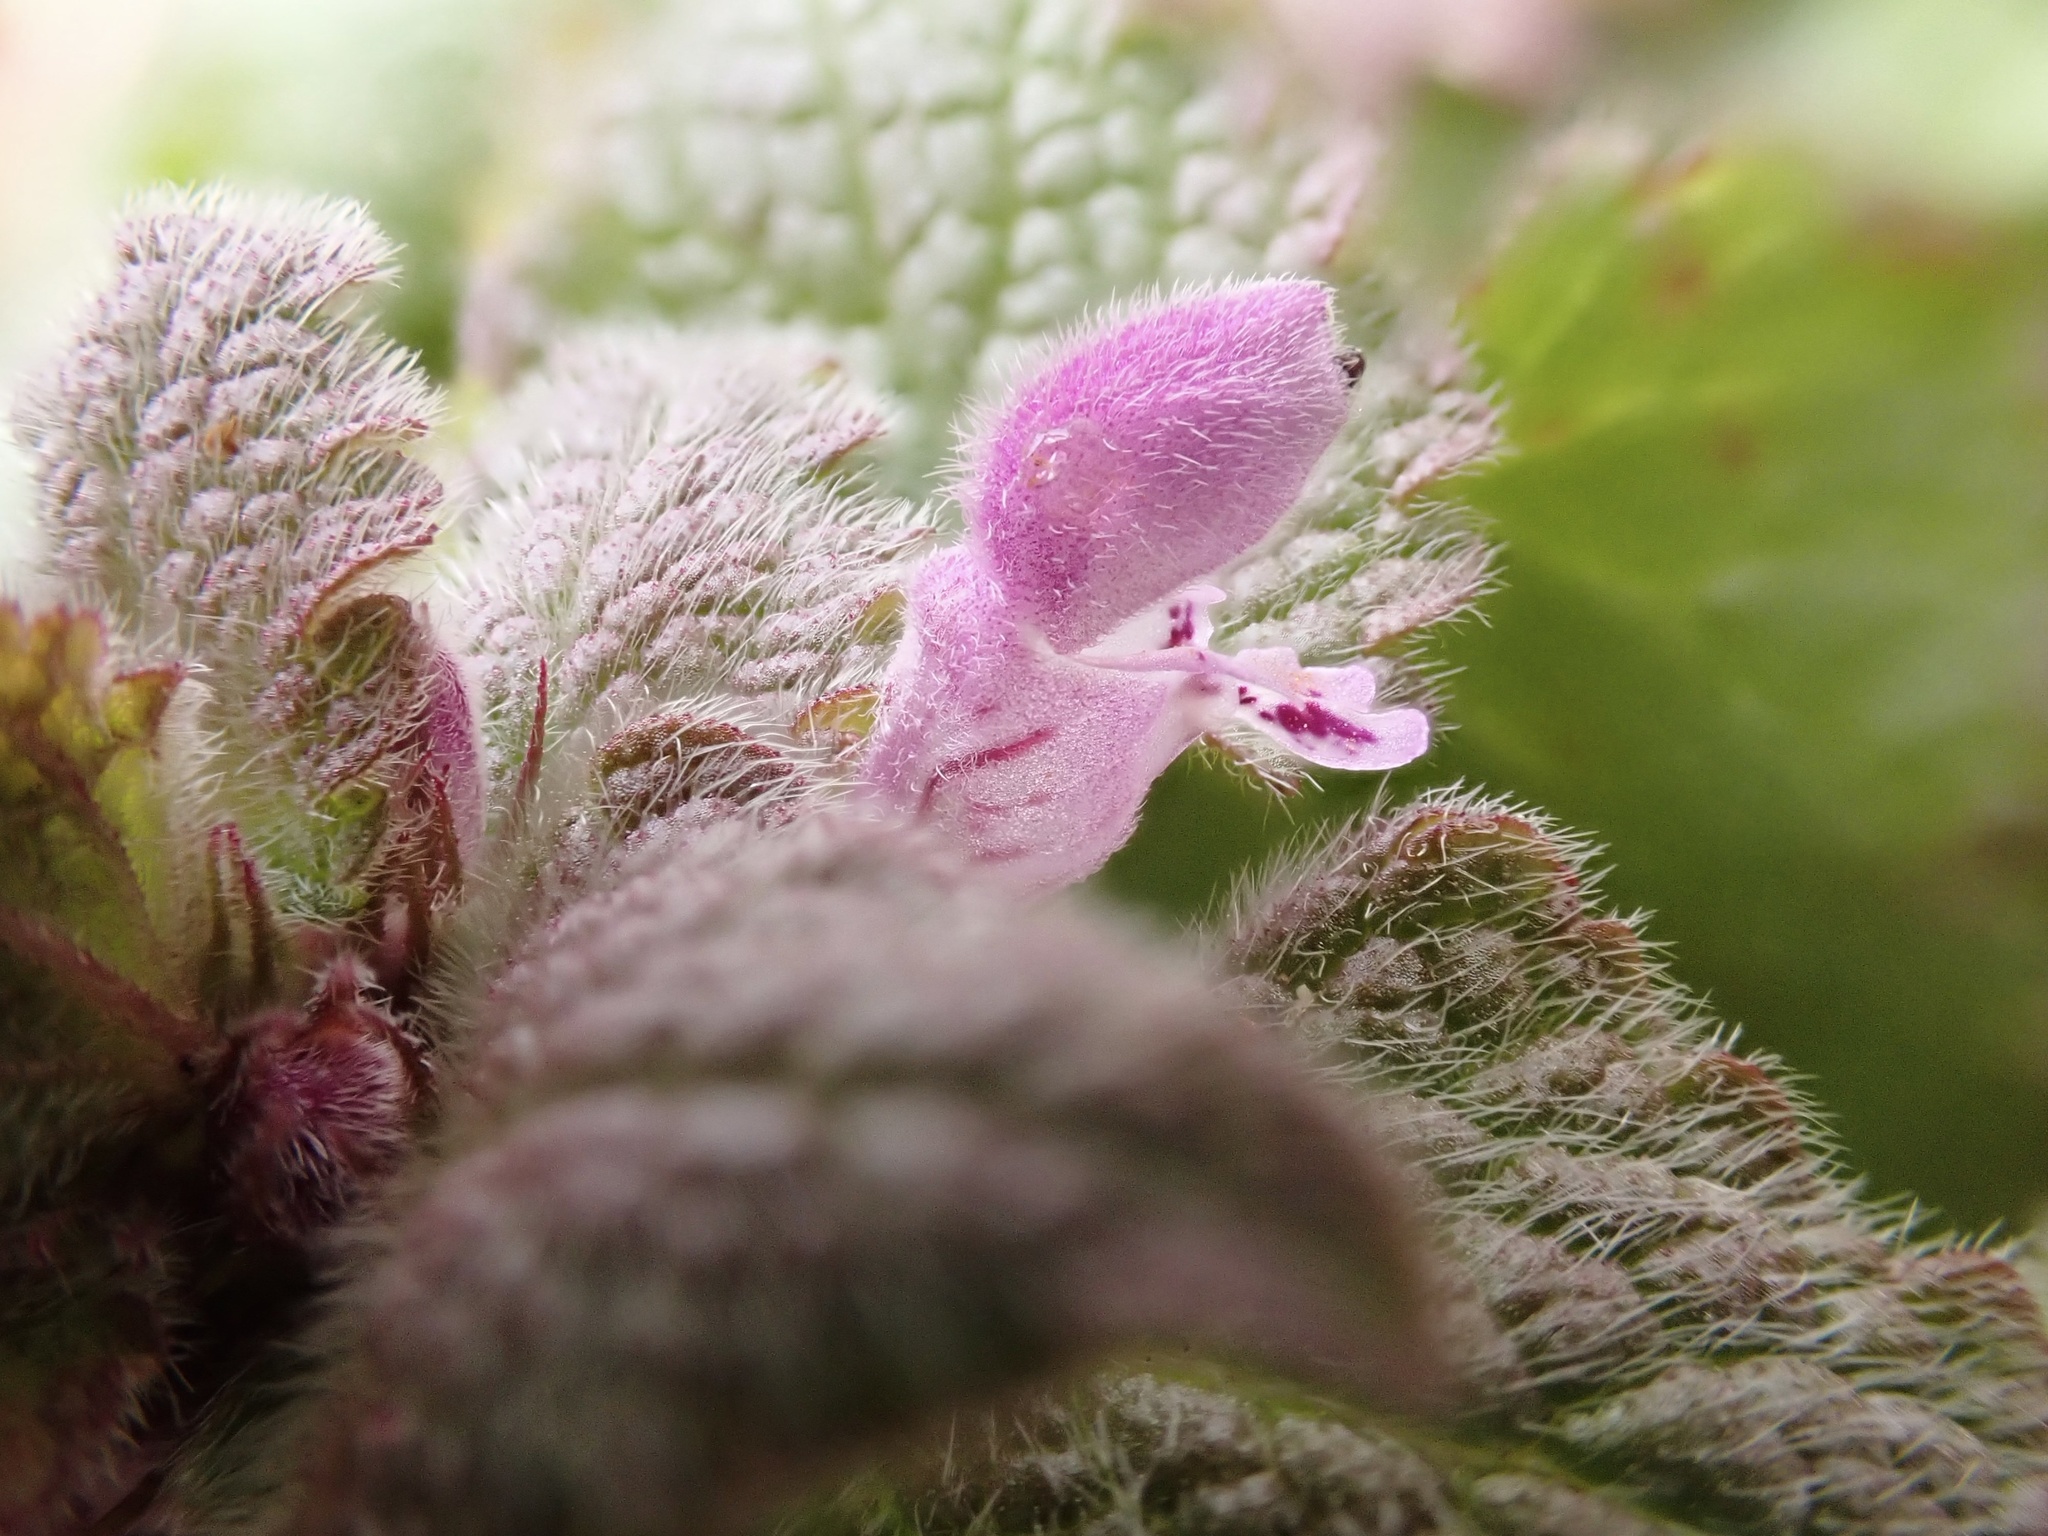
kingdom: Plantae
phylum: Tracheophyta
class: Magnoliopsida
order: Lamiales
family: Lamiaceae
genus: Lamium
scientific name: Lamium purpureum
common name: Red dead-nettle
